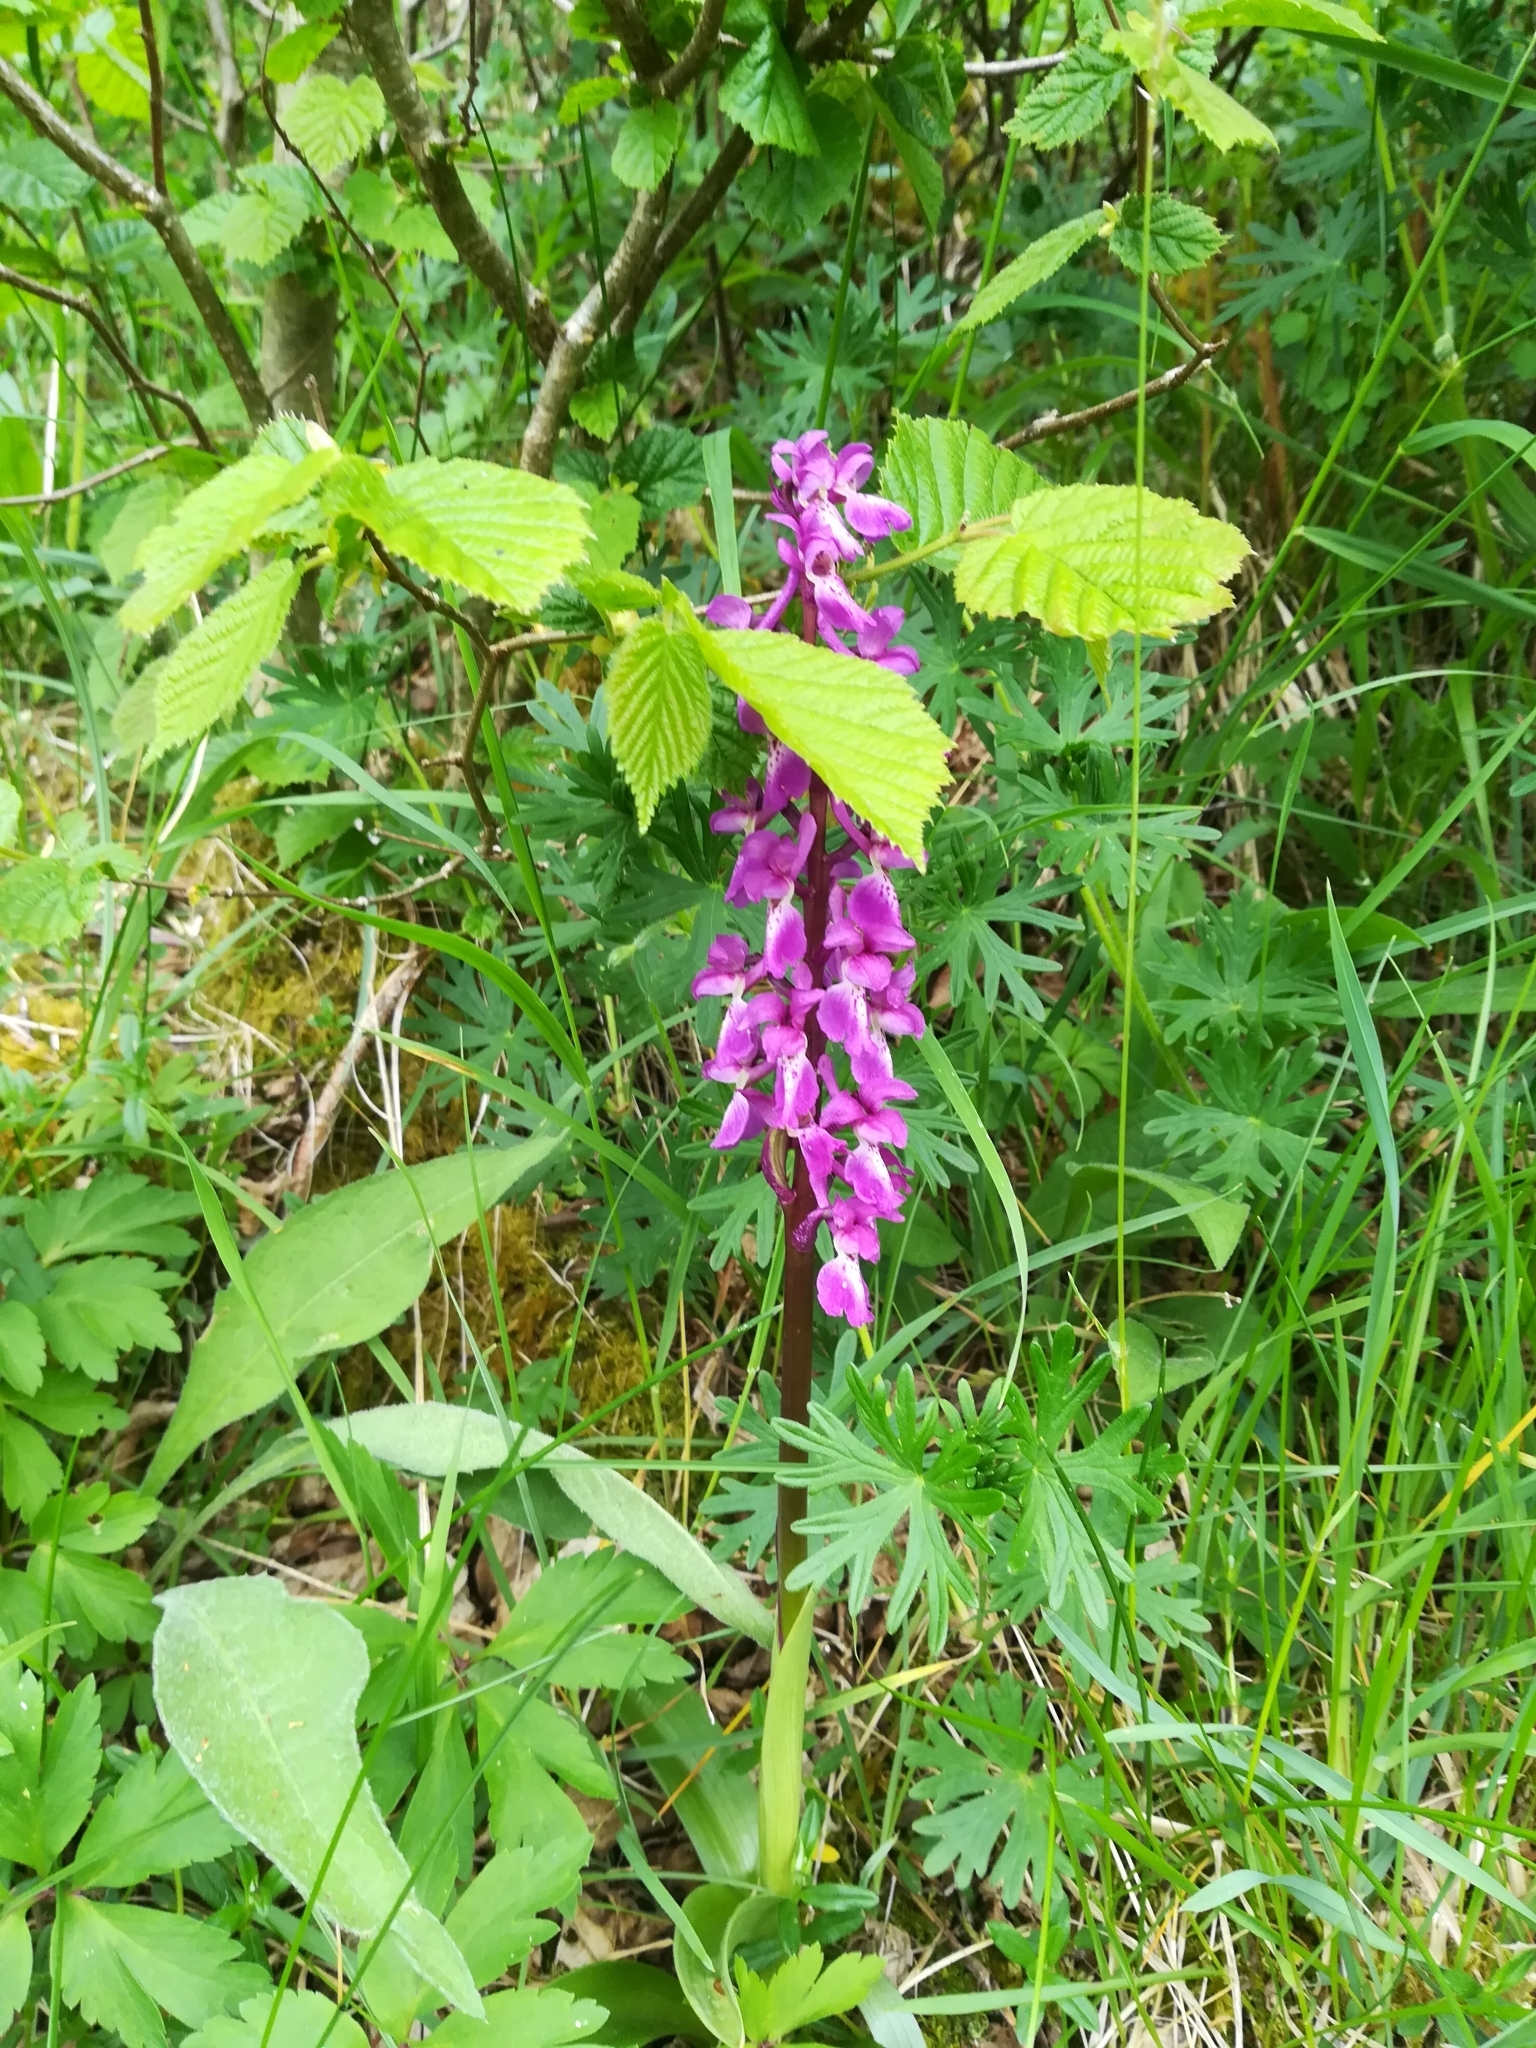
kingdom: Plantae
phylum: Tracheophyta
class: Liliopsida
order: Asparagales
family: Orchidaceae
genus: Orchis
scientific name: Orchis mascula
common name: Early-purple orchid
